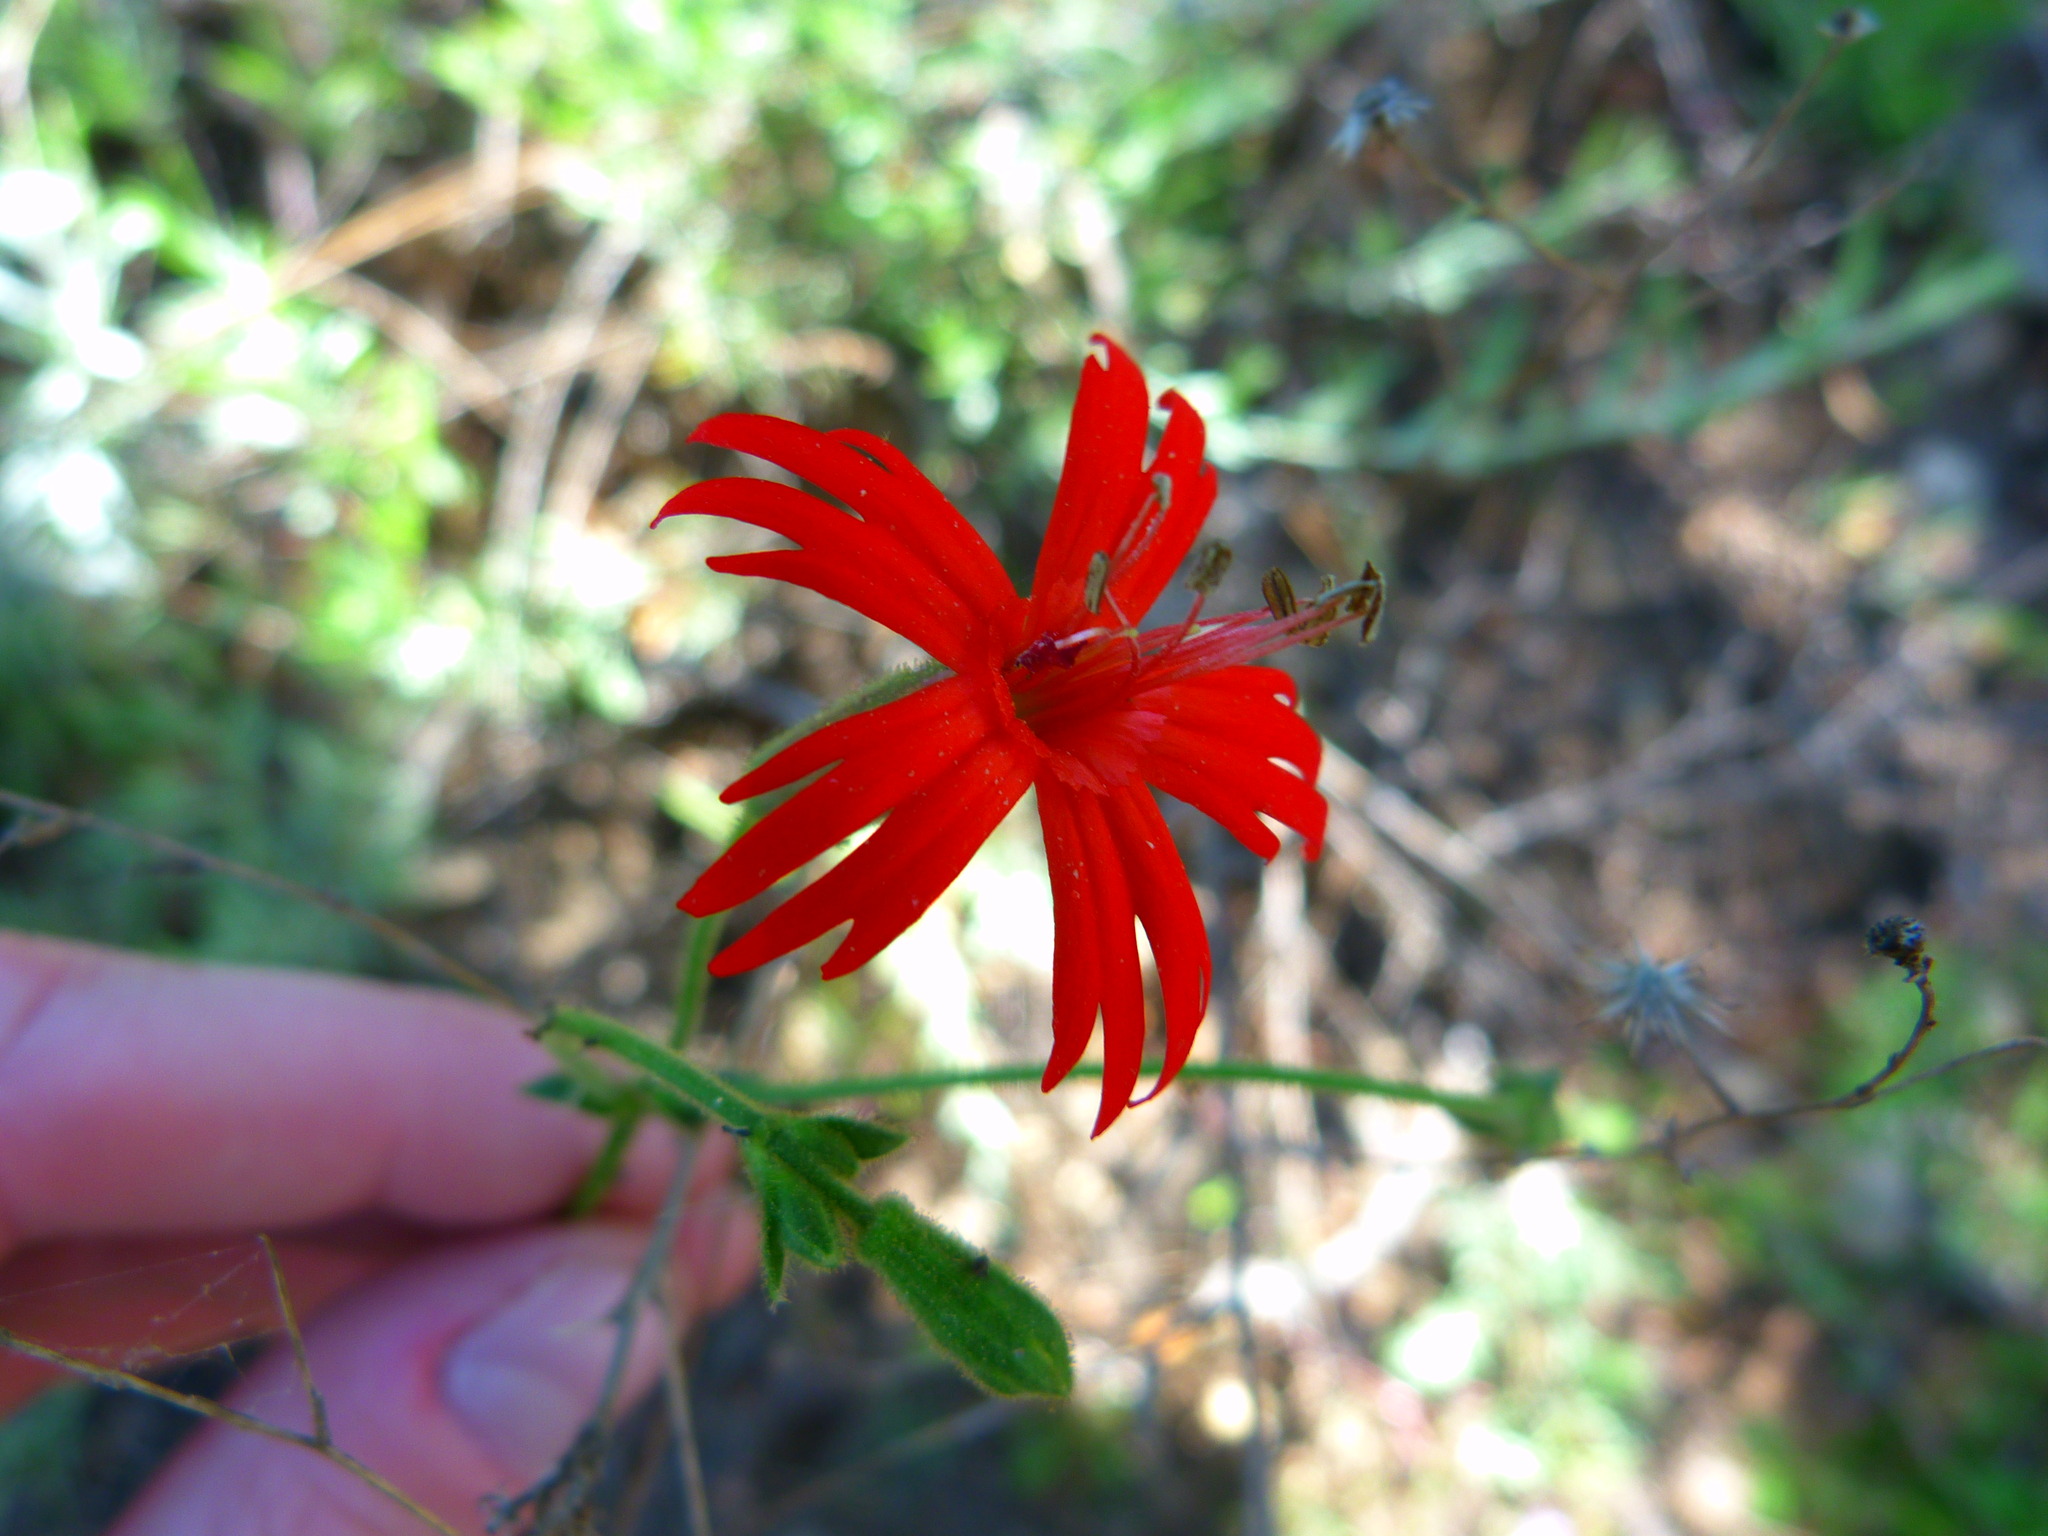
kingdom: Plantae
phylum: Tracheophyta
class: Magnoliopsida
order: Caryophyllales
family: Caryophyllaceae
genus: Silene
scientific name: Silene laciniata
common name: Indian-pink
